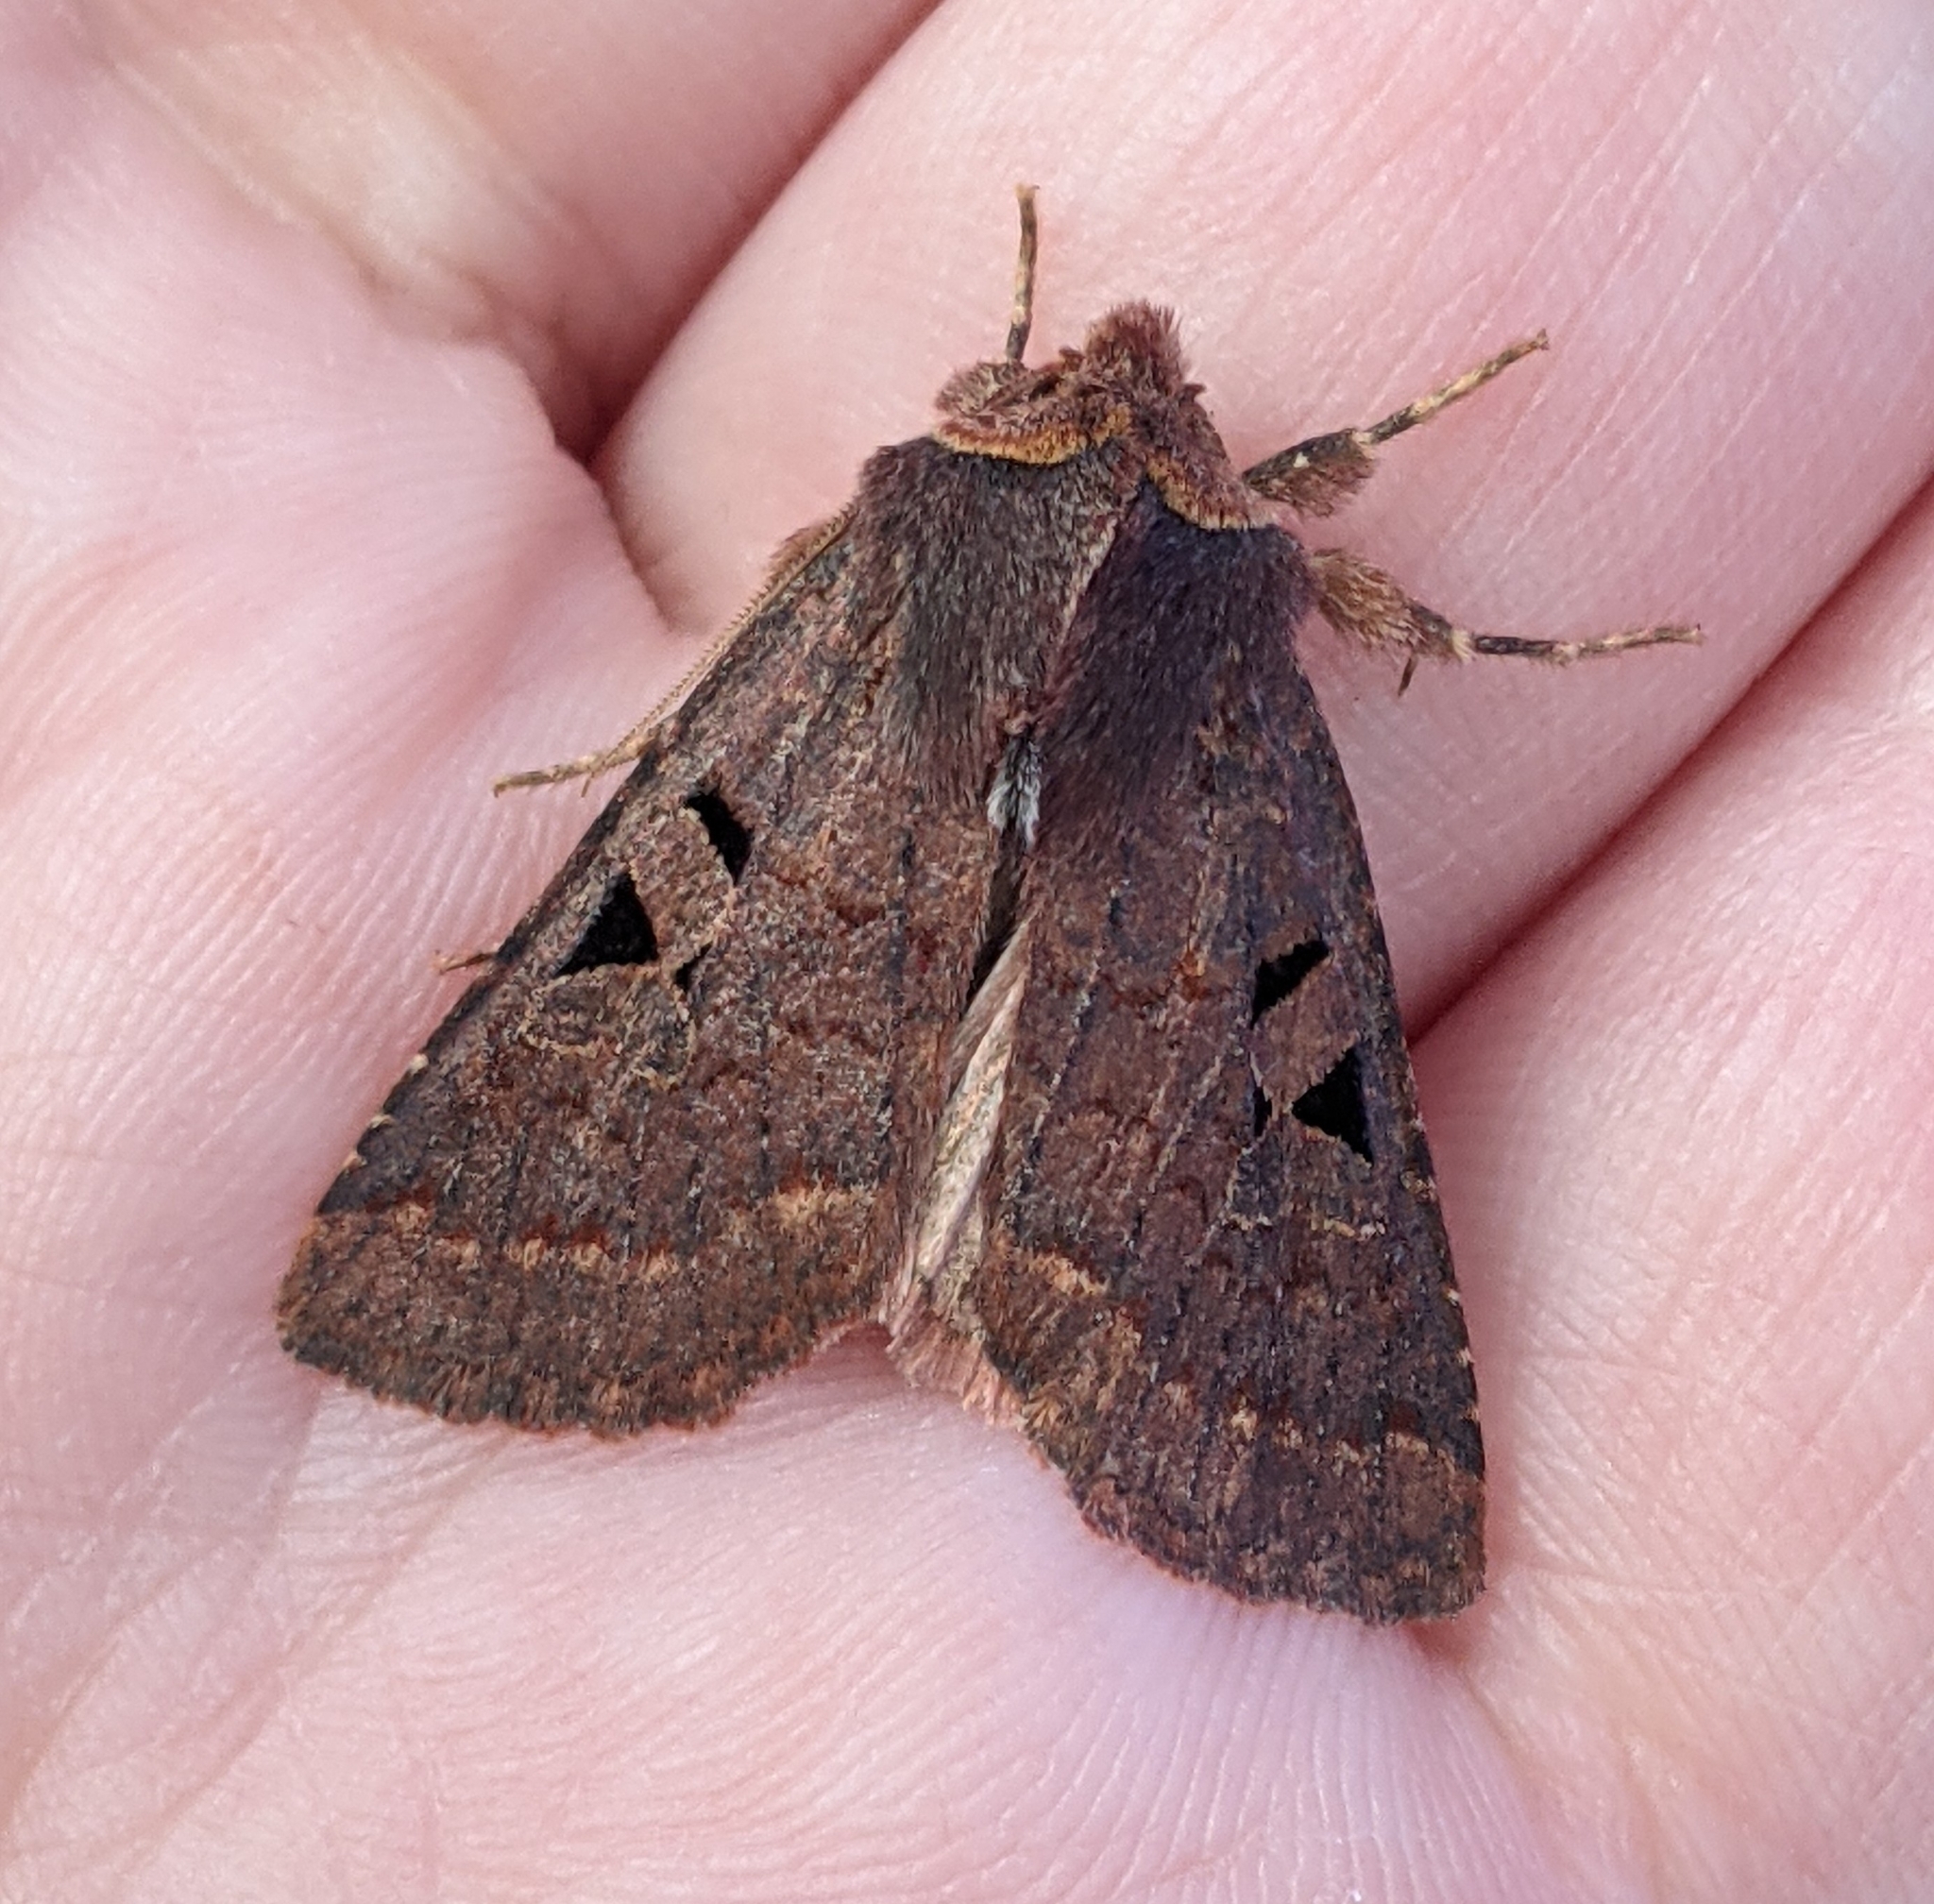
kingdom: Animalia
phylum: Arthropoda
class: Insecta
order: Lepidoptera
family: Noctuidae
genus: Orthosia
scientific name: Orthosia praeses
